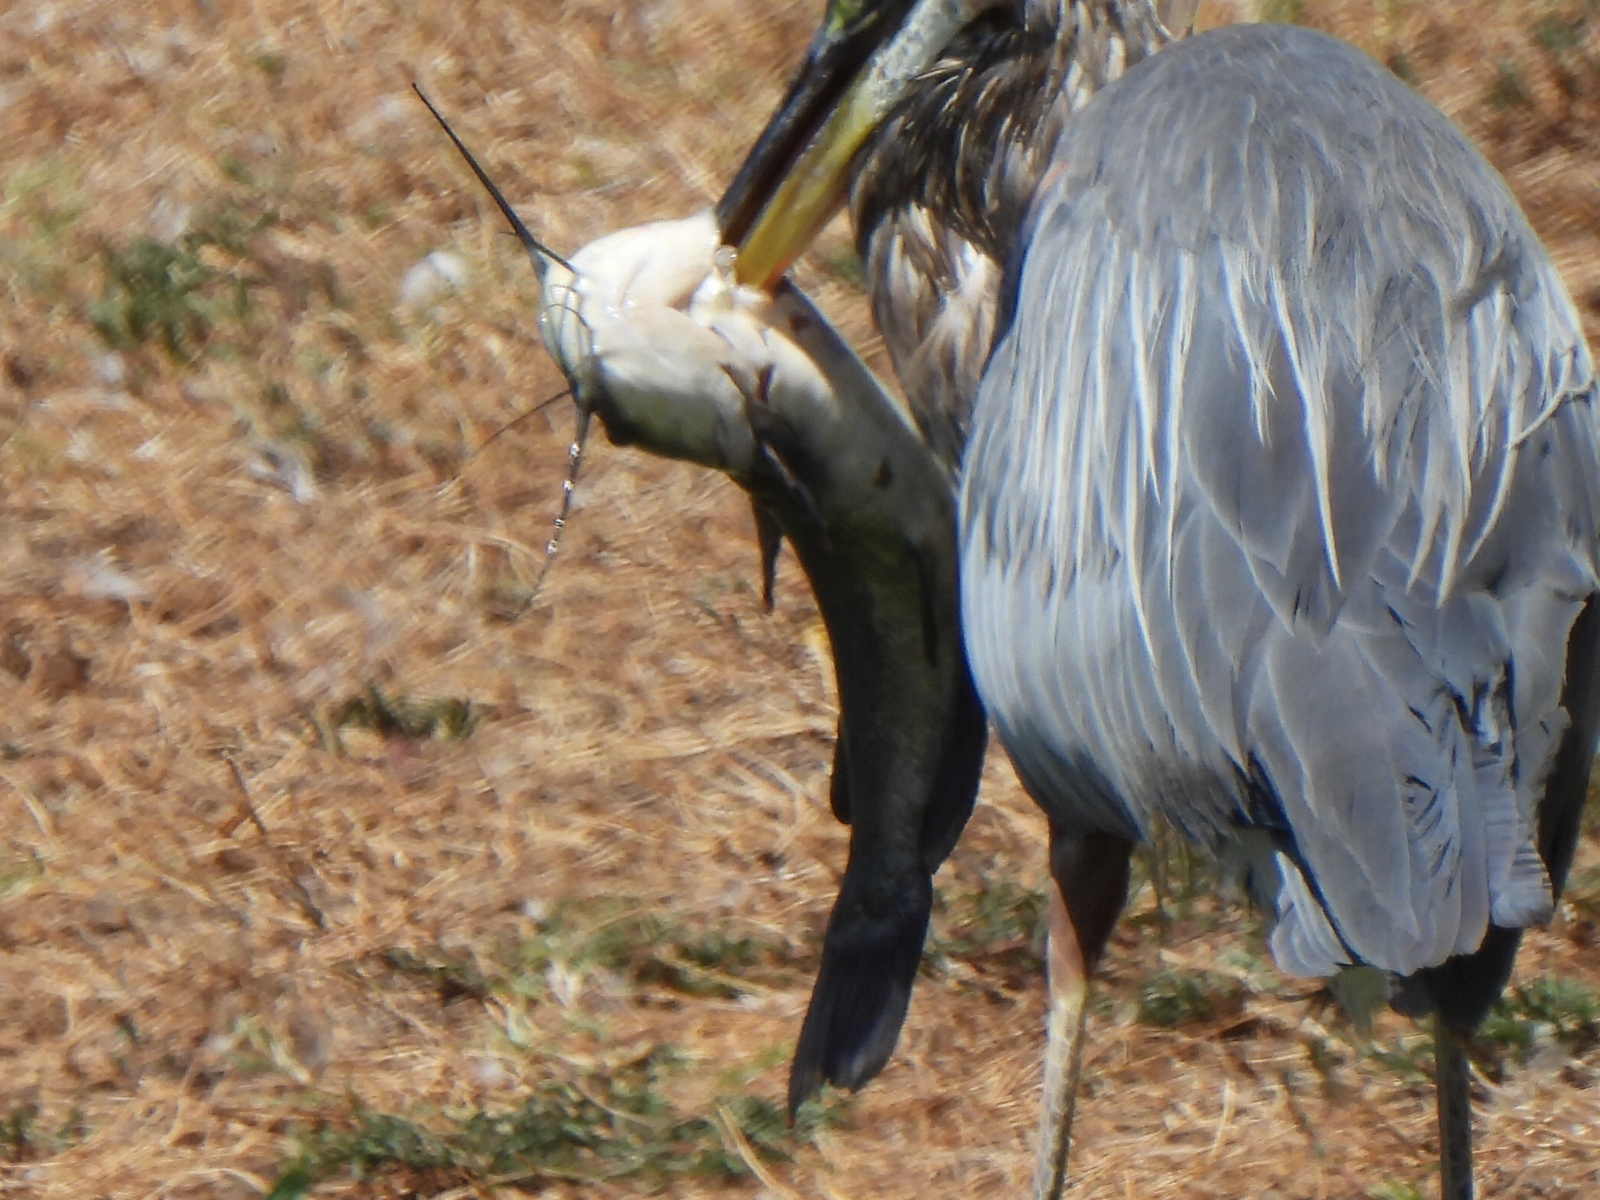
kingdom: Animalia
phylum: Chordata
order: Siluriformes
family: Ictaluridae
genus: Ameiurus
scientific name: Ameiurus melas
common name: Black bullhead
